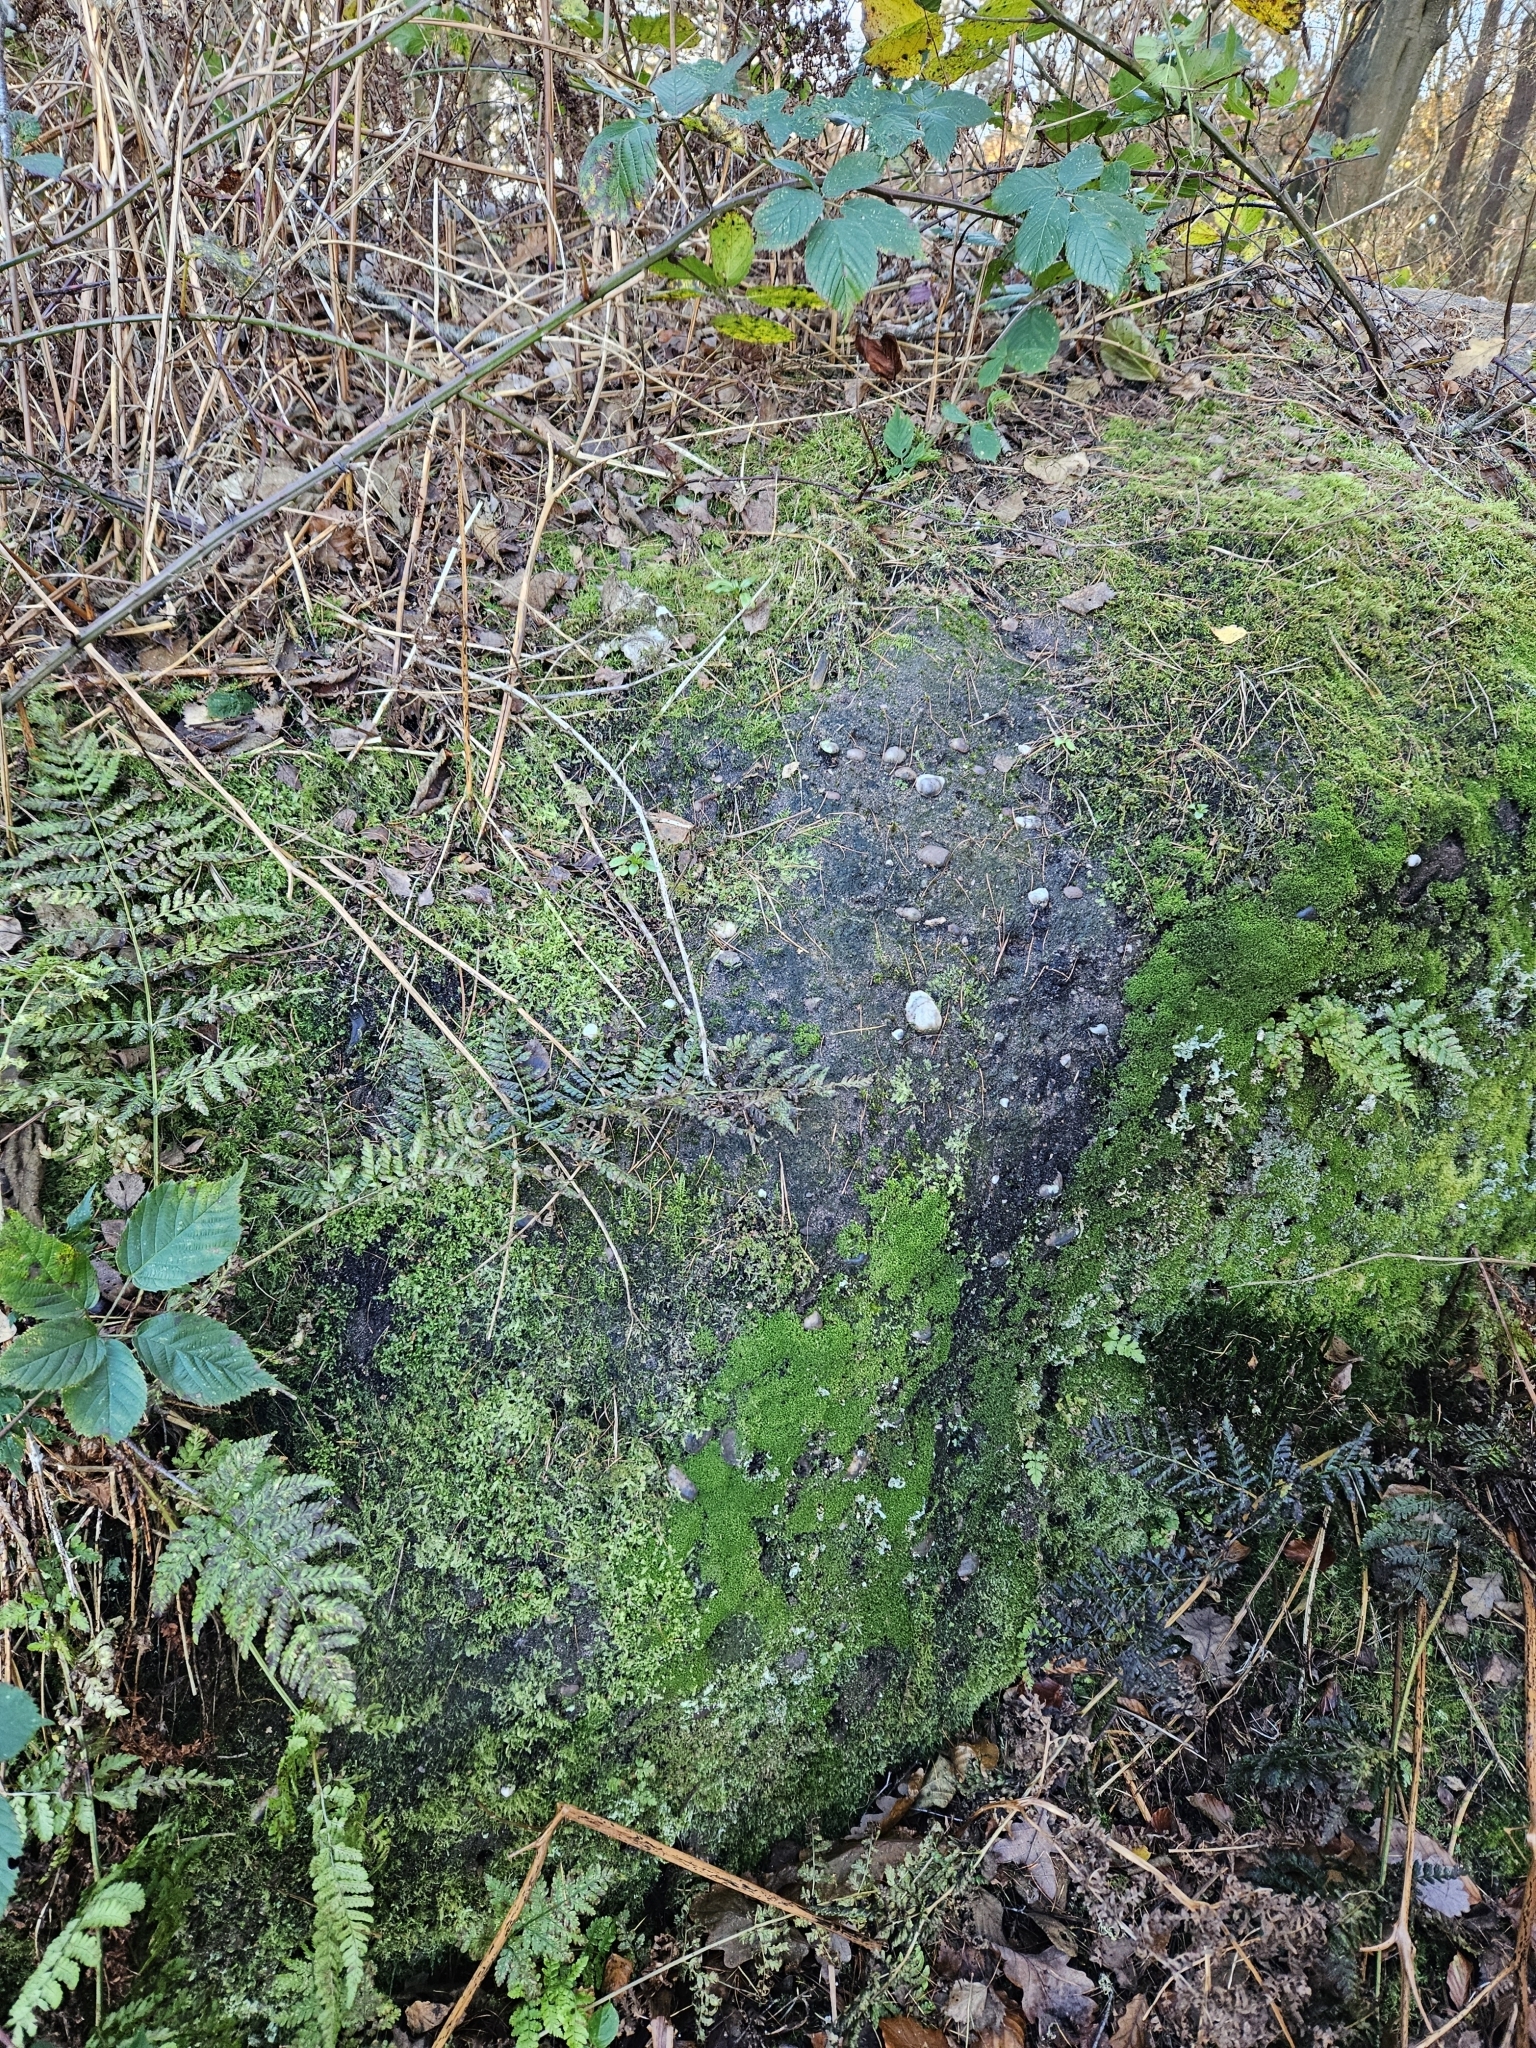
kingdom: Plantae
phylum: Marchantiophyta
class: Jungermanniopsida
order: Jungermanniales
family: Lophoziaceae
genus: Lophozia
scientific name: Lophozia ventricosa
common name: Tumid notchwort
